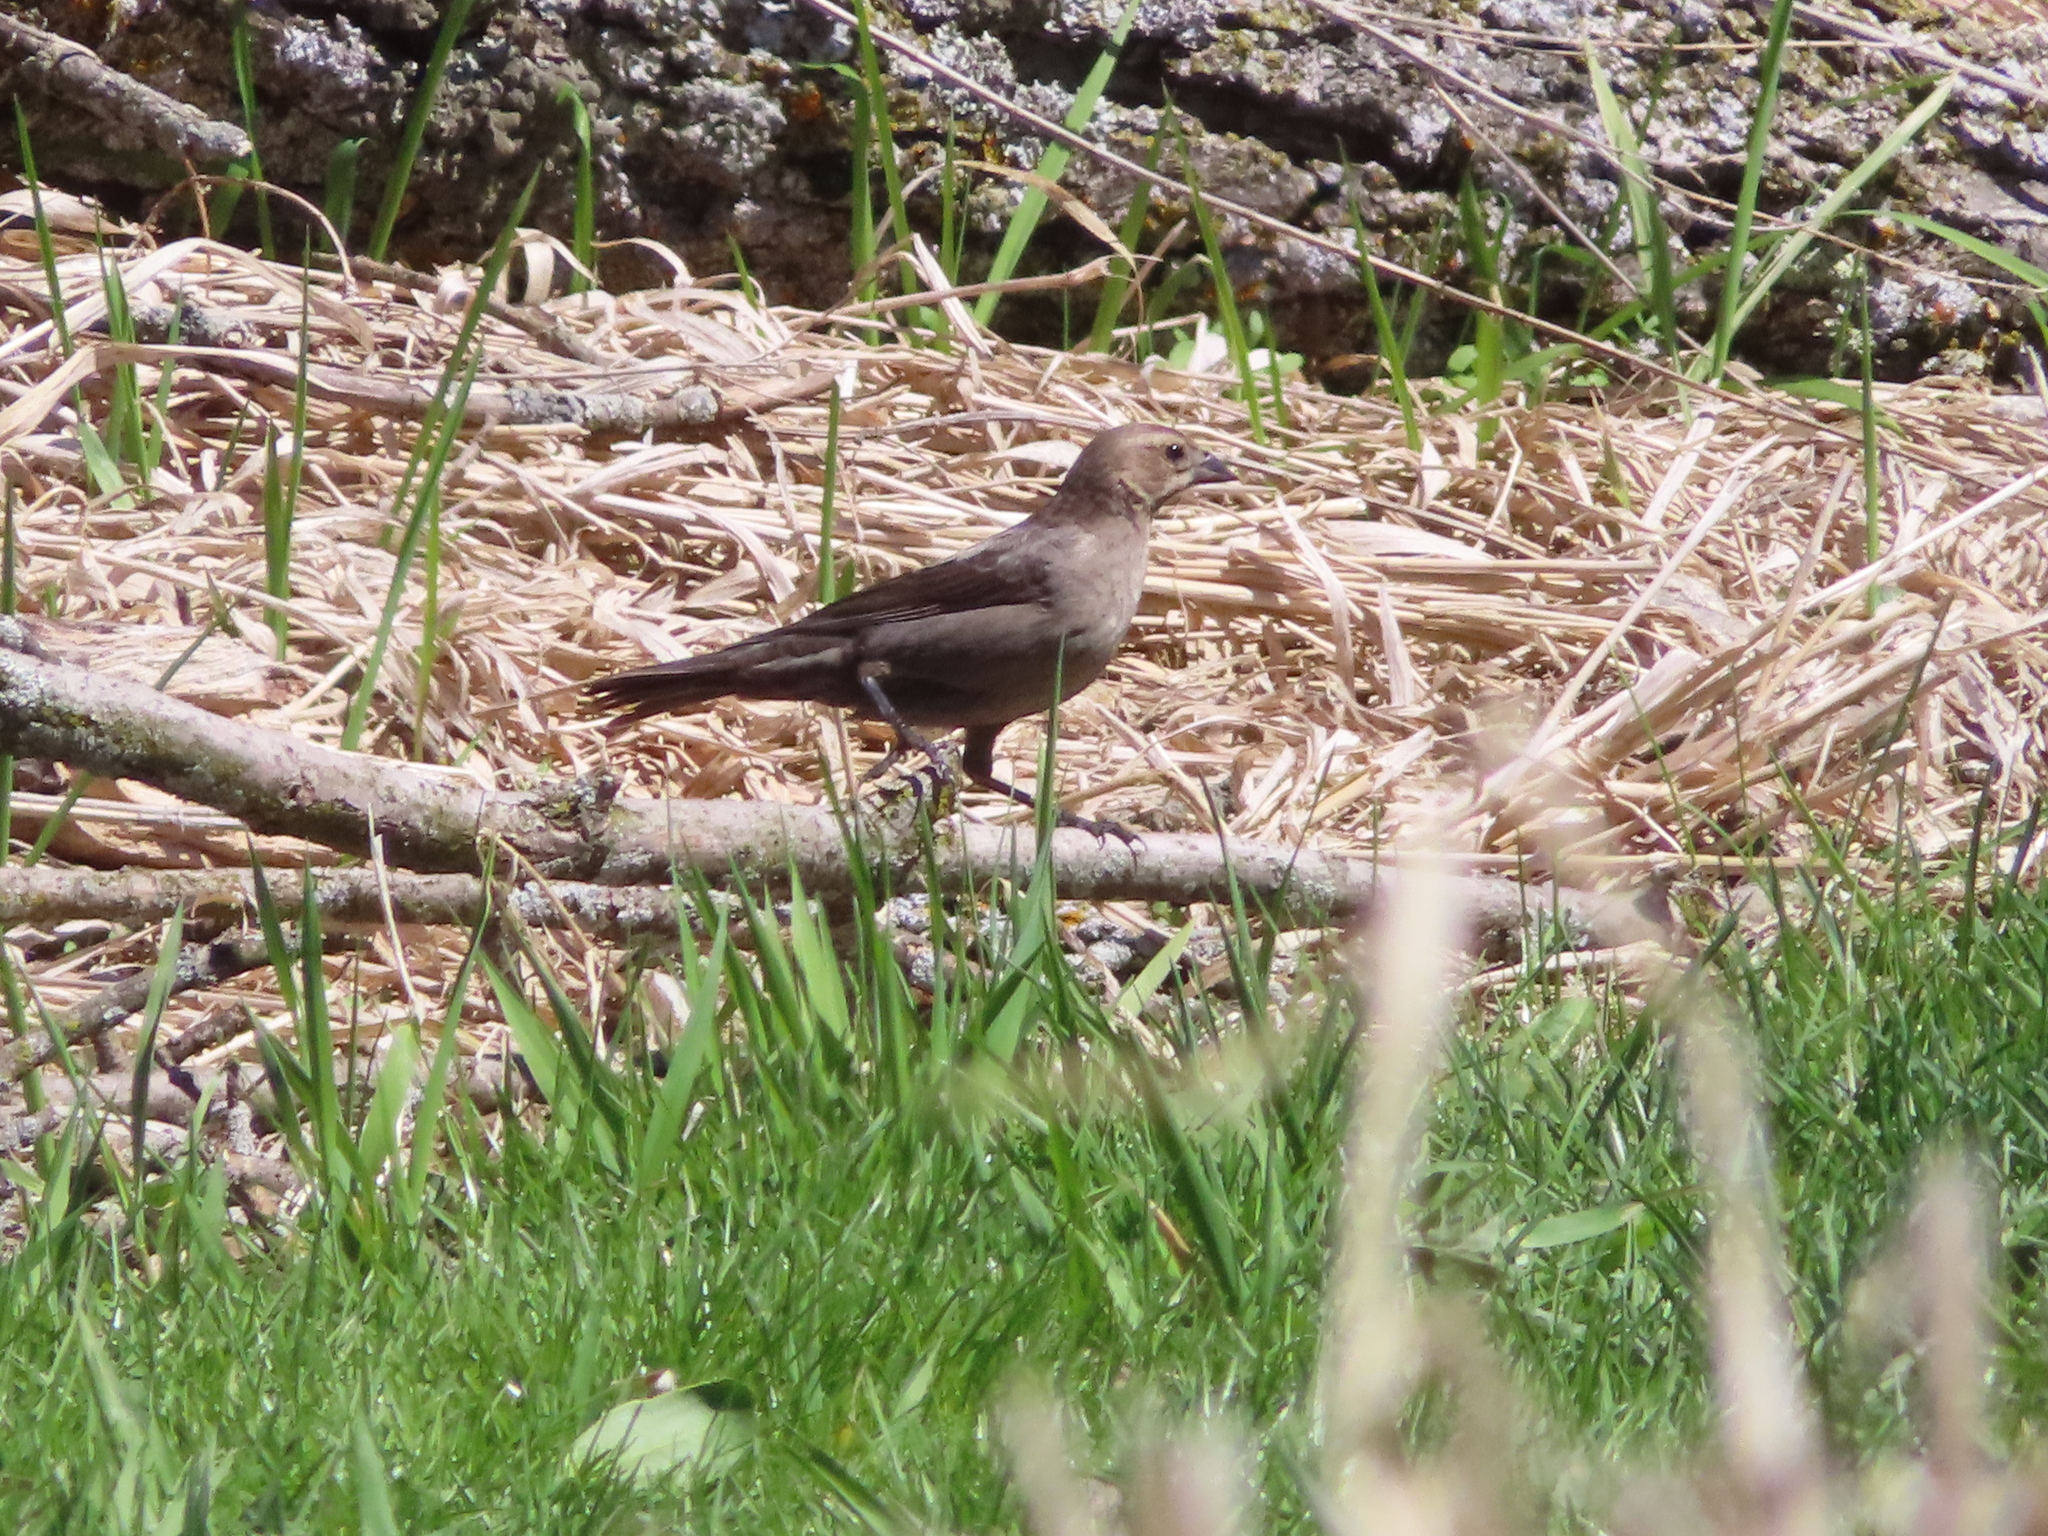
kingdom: Animalia
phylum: Chordata
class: Aves
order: Passeriformes
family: Icteridae
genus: Molothrus
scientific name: Molothrus ater
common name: Brown-headed cowbird
